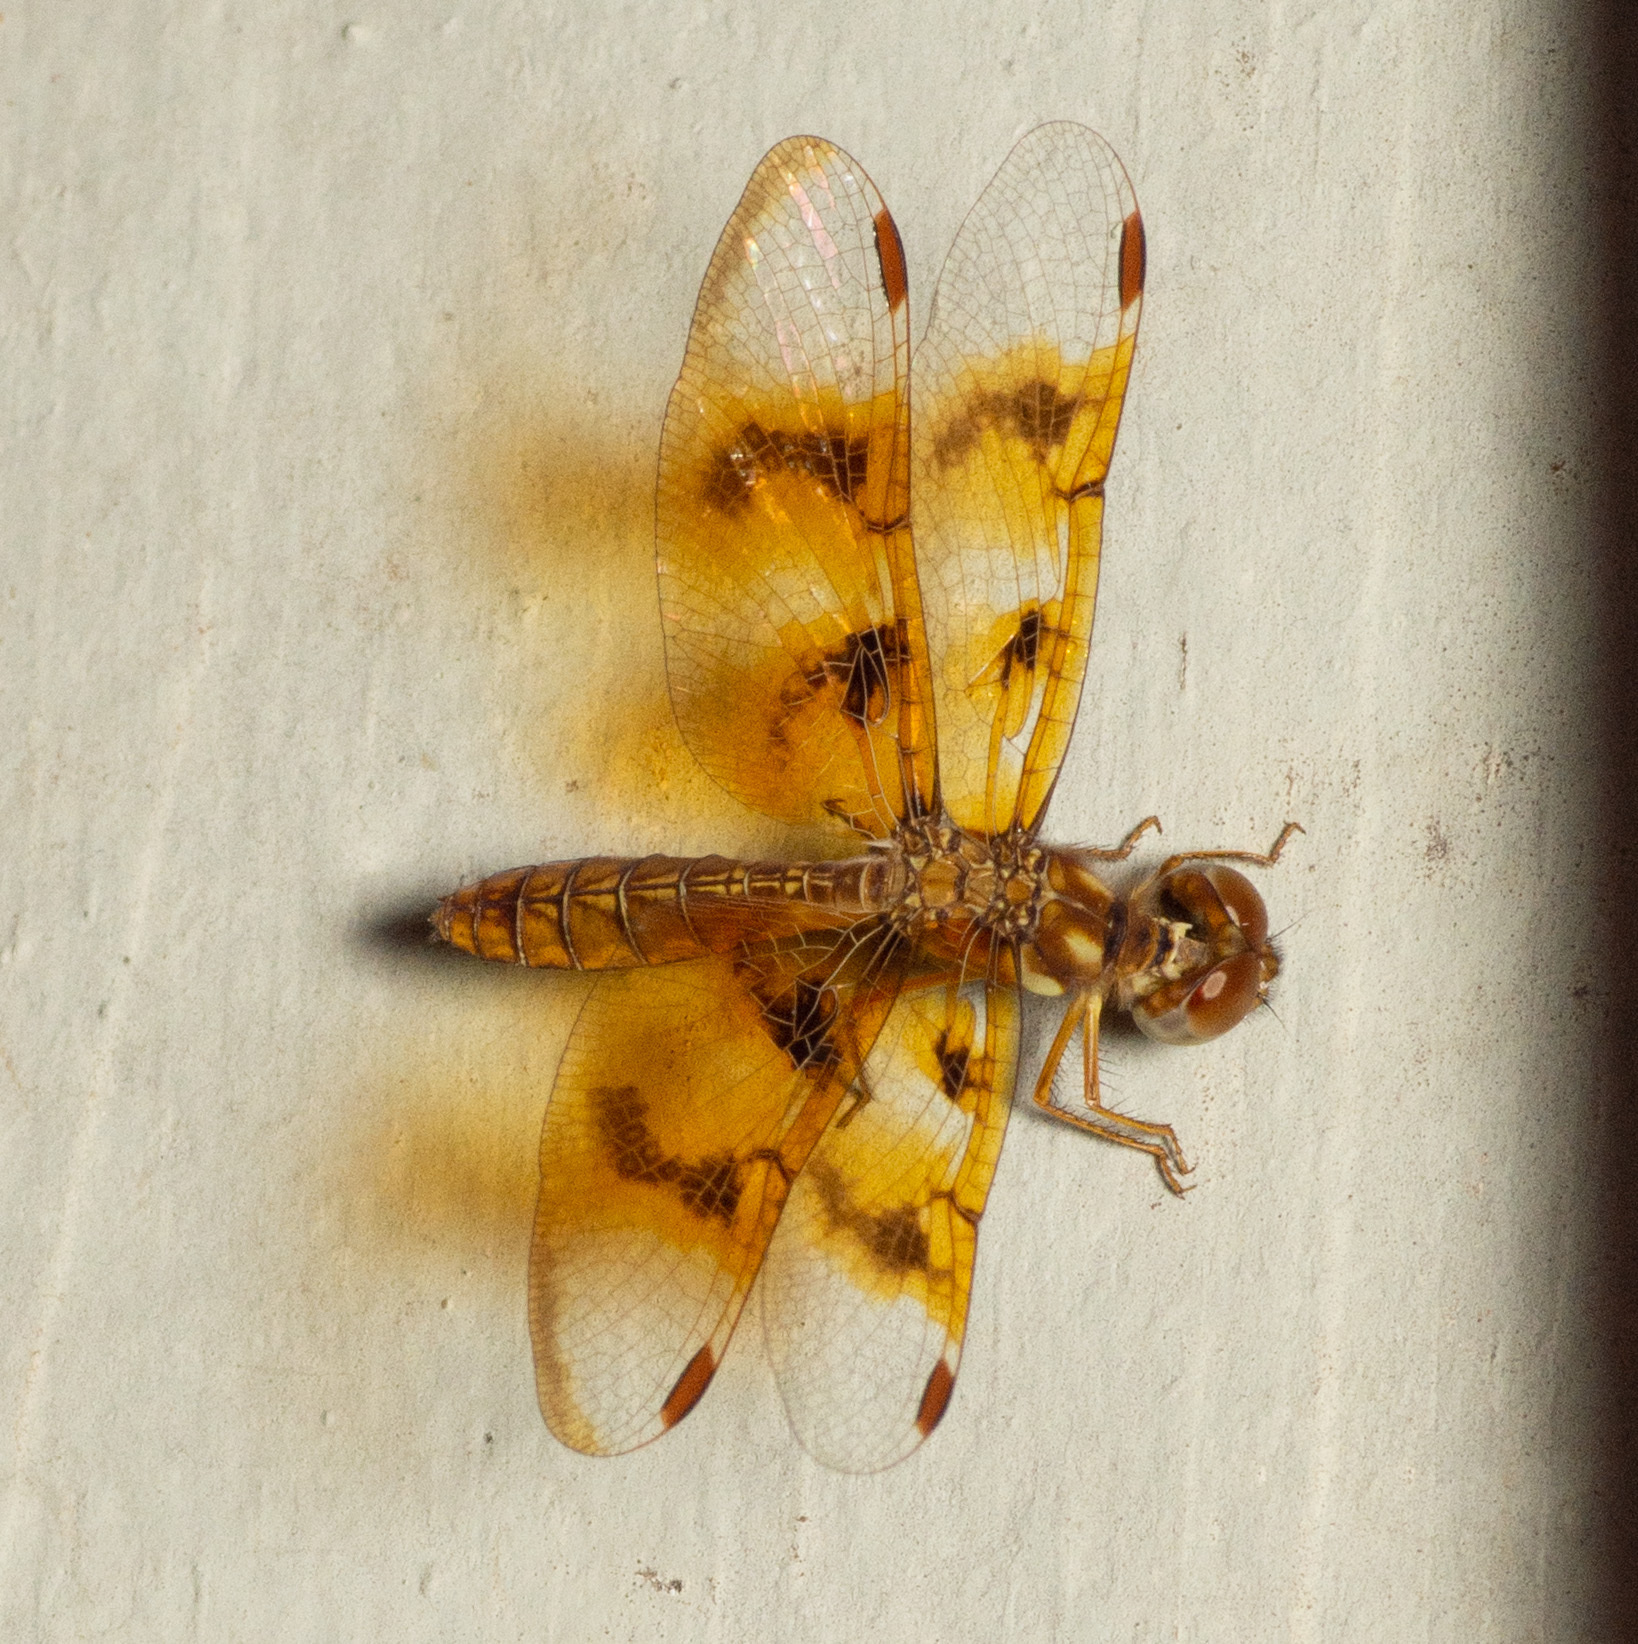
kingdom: Animalia
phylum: Arthropoda
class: Insecta
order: Odonata
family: Libellulidae
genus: Perithemis
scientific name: Perithemis tenera
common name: Eastern amberwing
